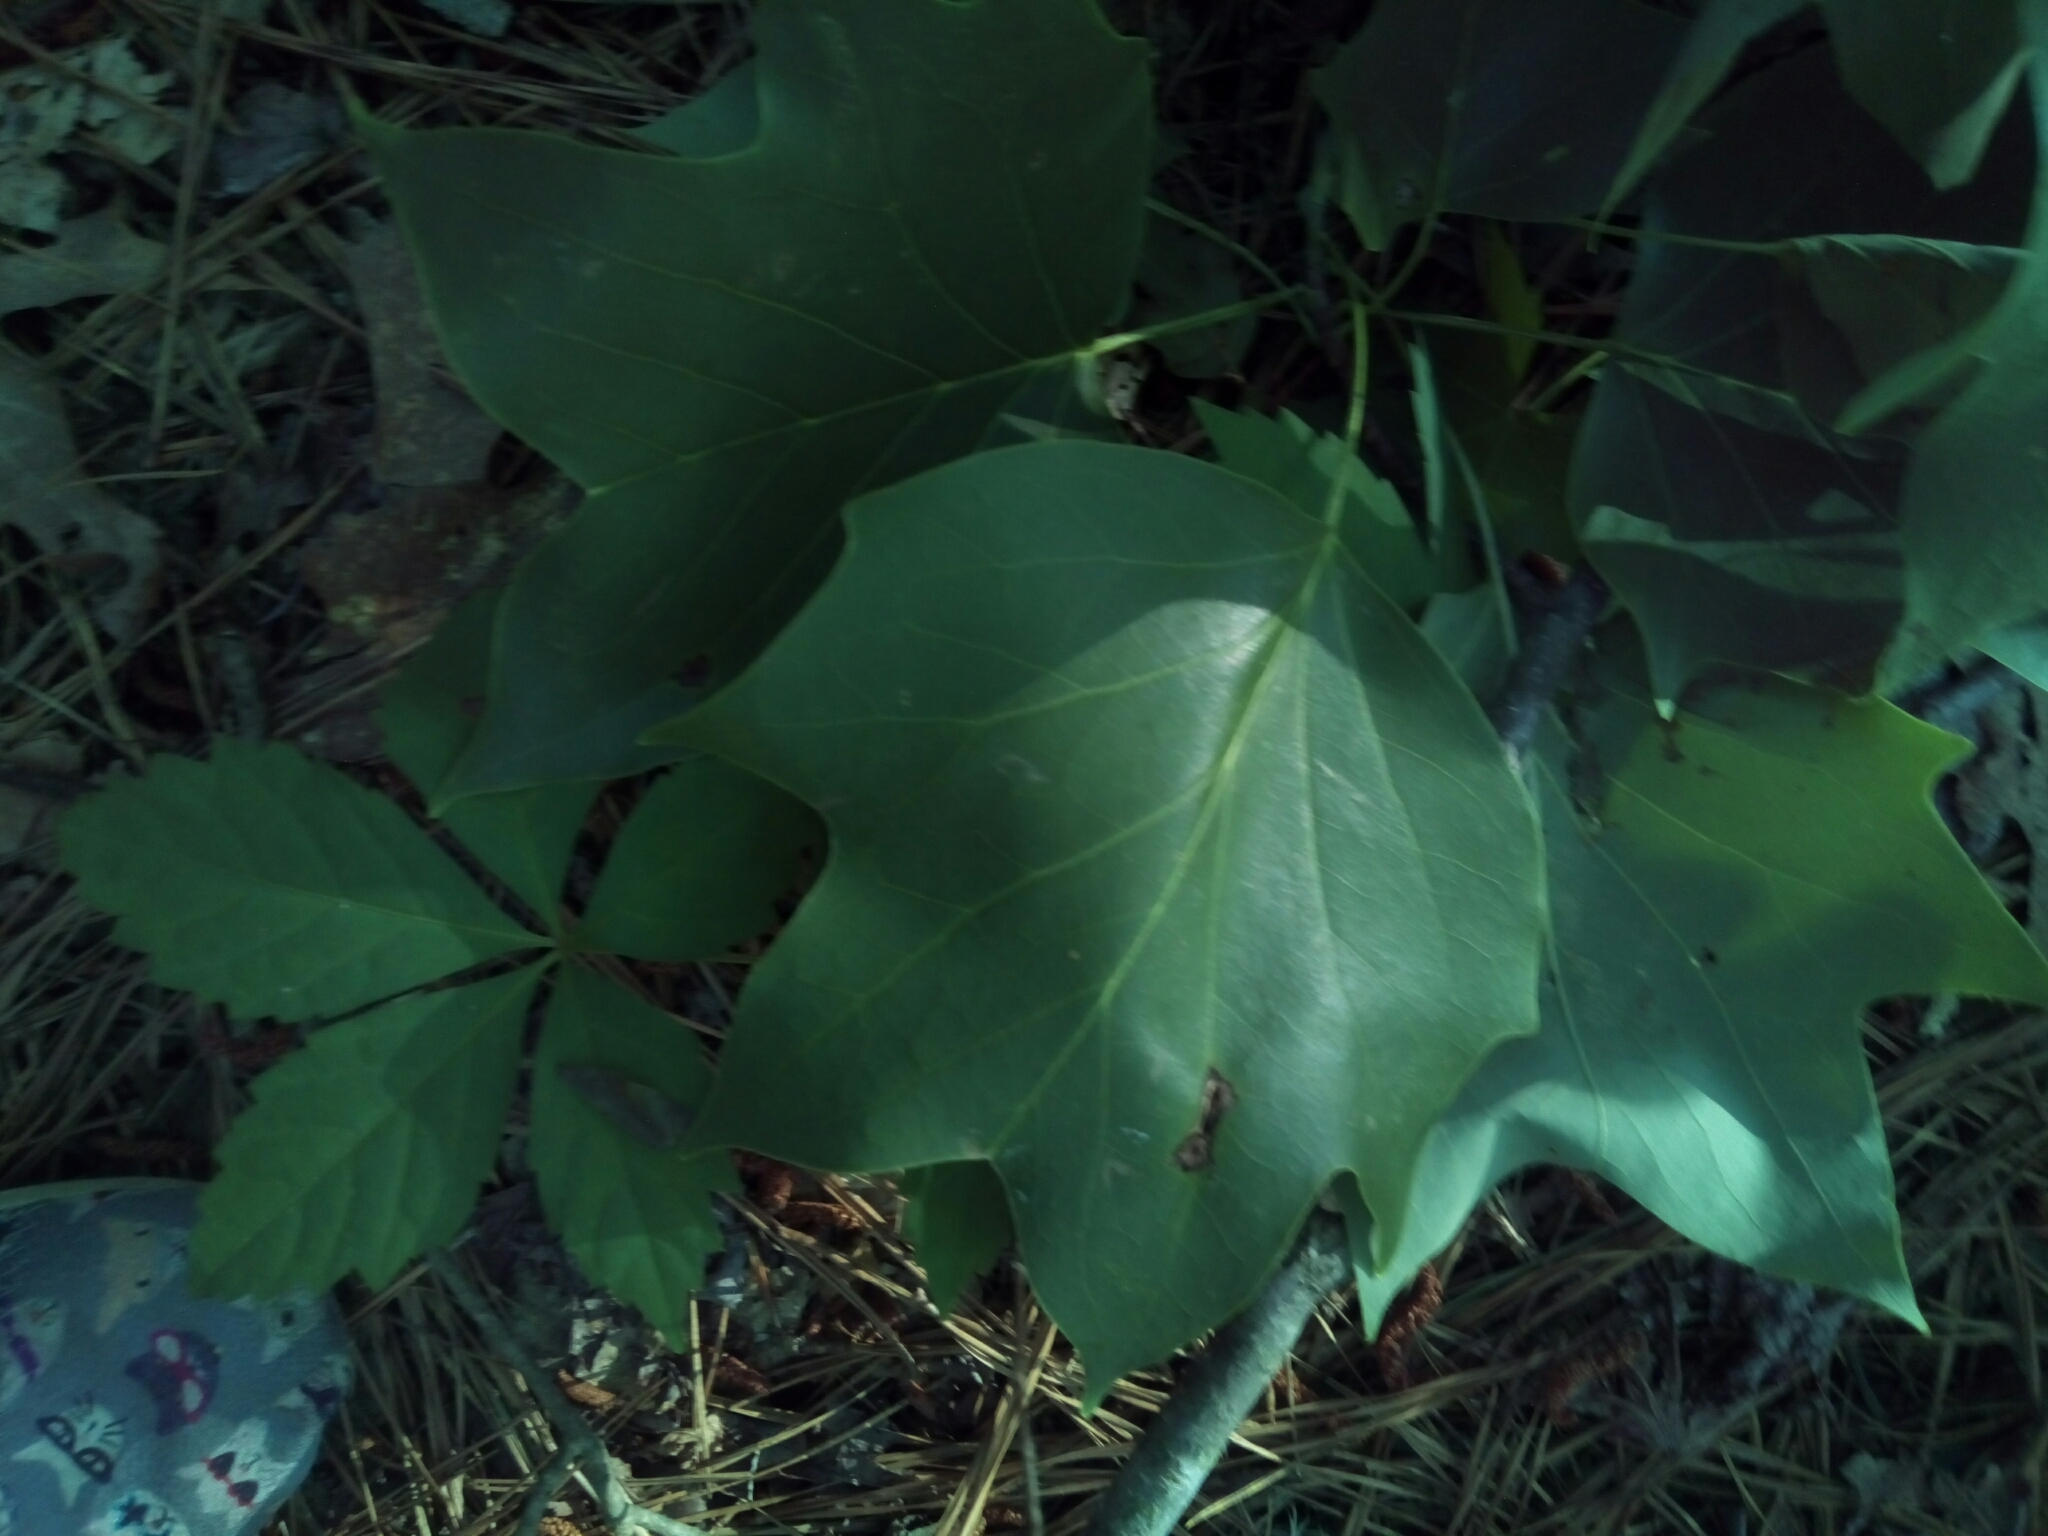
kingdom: Plantae
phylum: Tracheophyta
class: Magnoliopsida
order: Magnoliales
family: Magnoliaceae
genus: Liriodendron
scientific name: Liriodendron tulipifera
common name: Tulip tree
